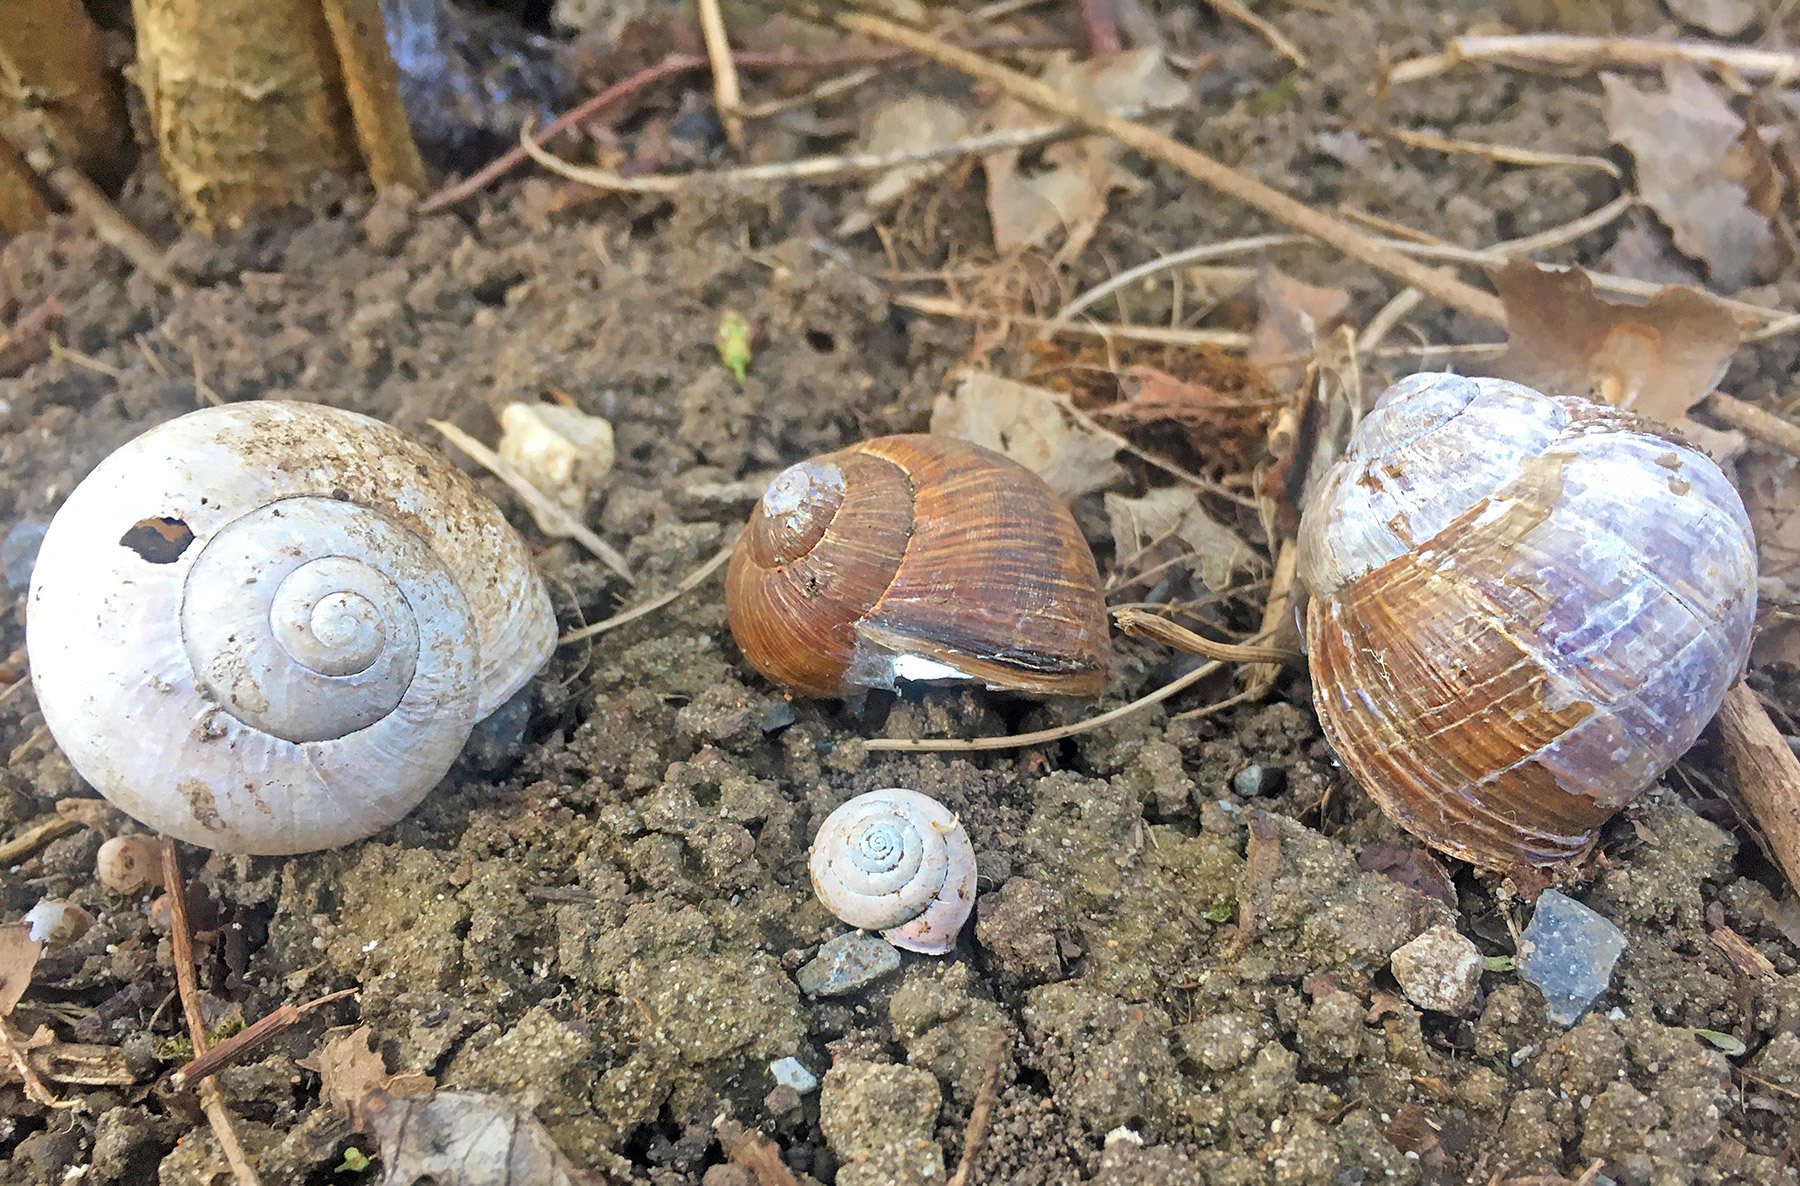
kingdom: Animalia
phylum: Mollusca
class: Gastropoda
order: Stylommatophora
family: Helicidae
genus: Helix
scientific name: Helix pomatia
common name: Roman snail
